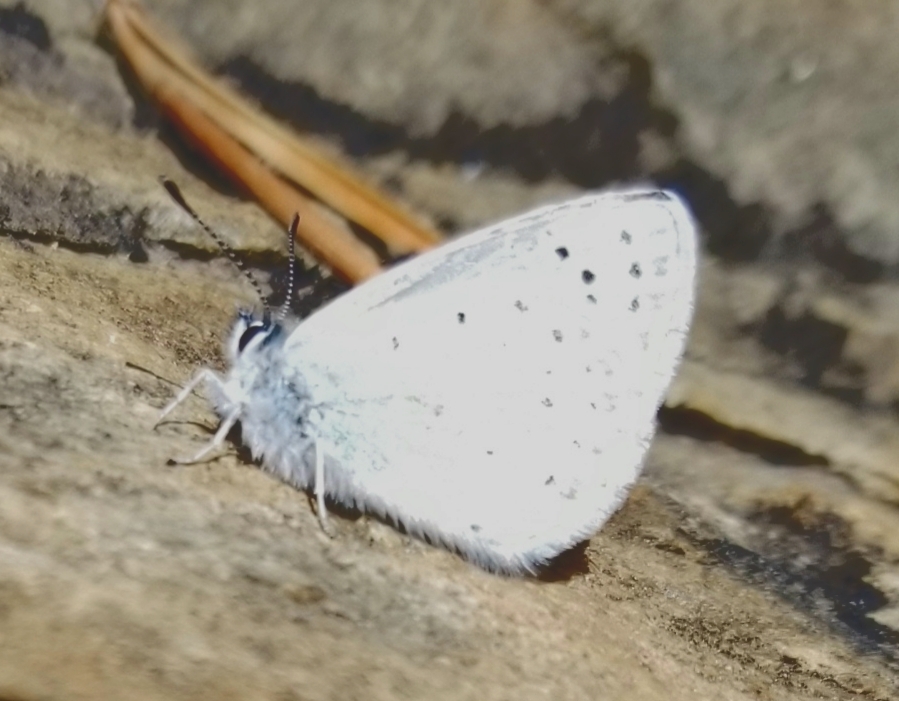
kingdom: Animalia
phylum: Arthropoda
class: Insecta
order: Lepidoptera
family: Lycaenidae
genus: Icaricia
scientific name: Icaricia saepiolus
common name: Greenish blue
